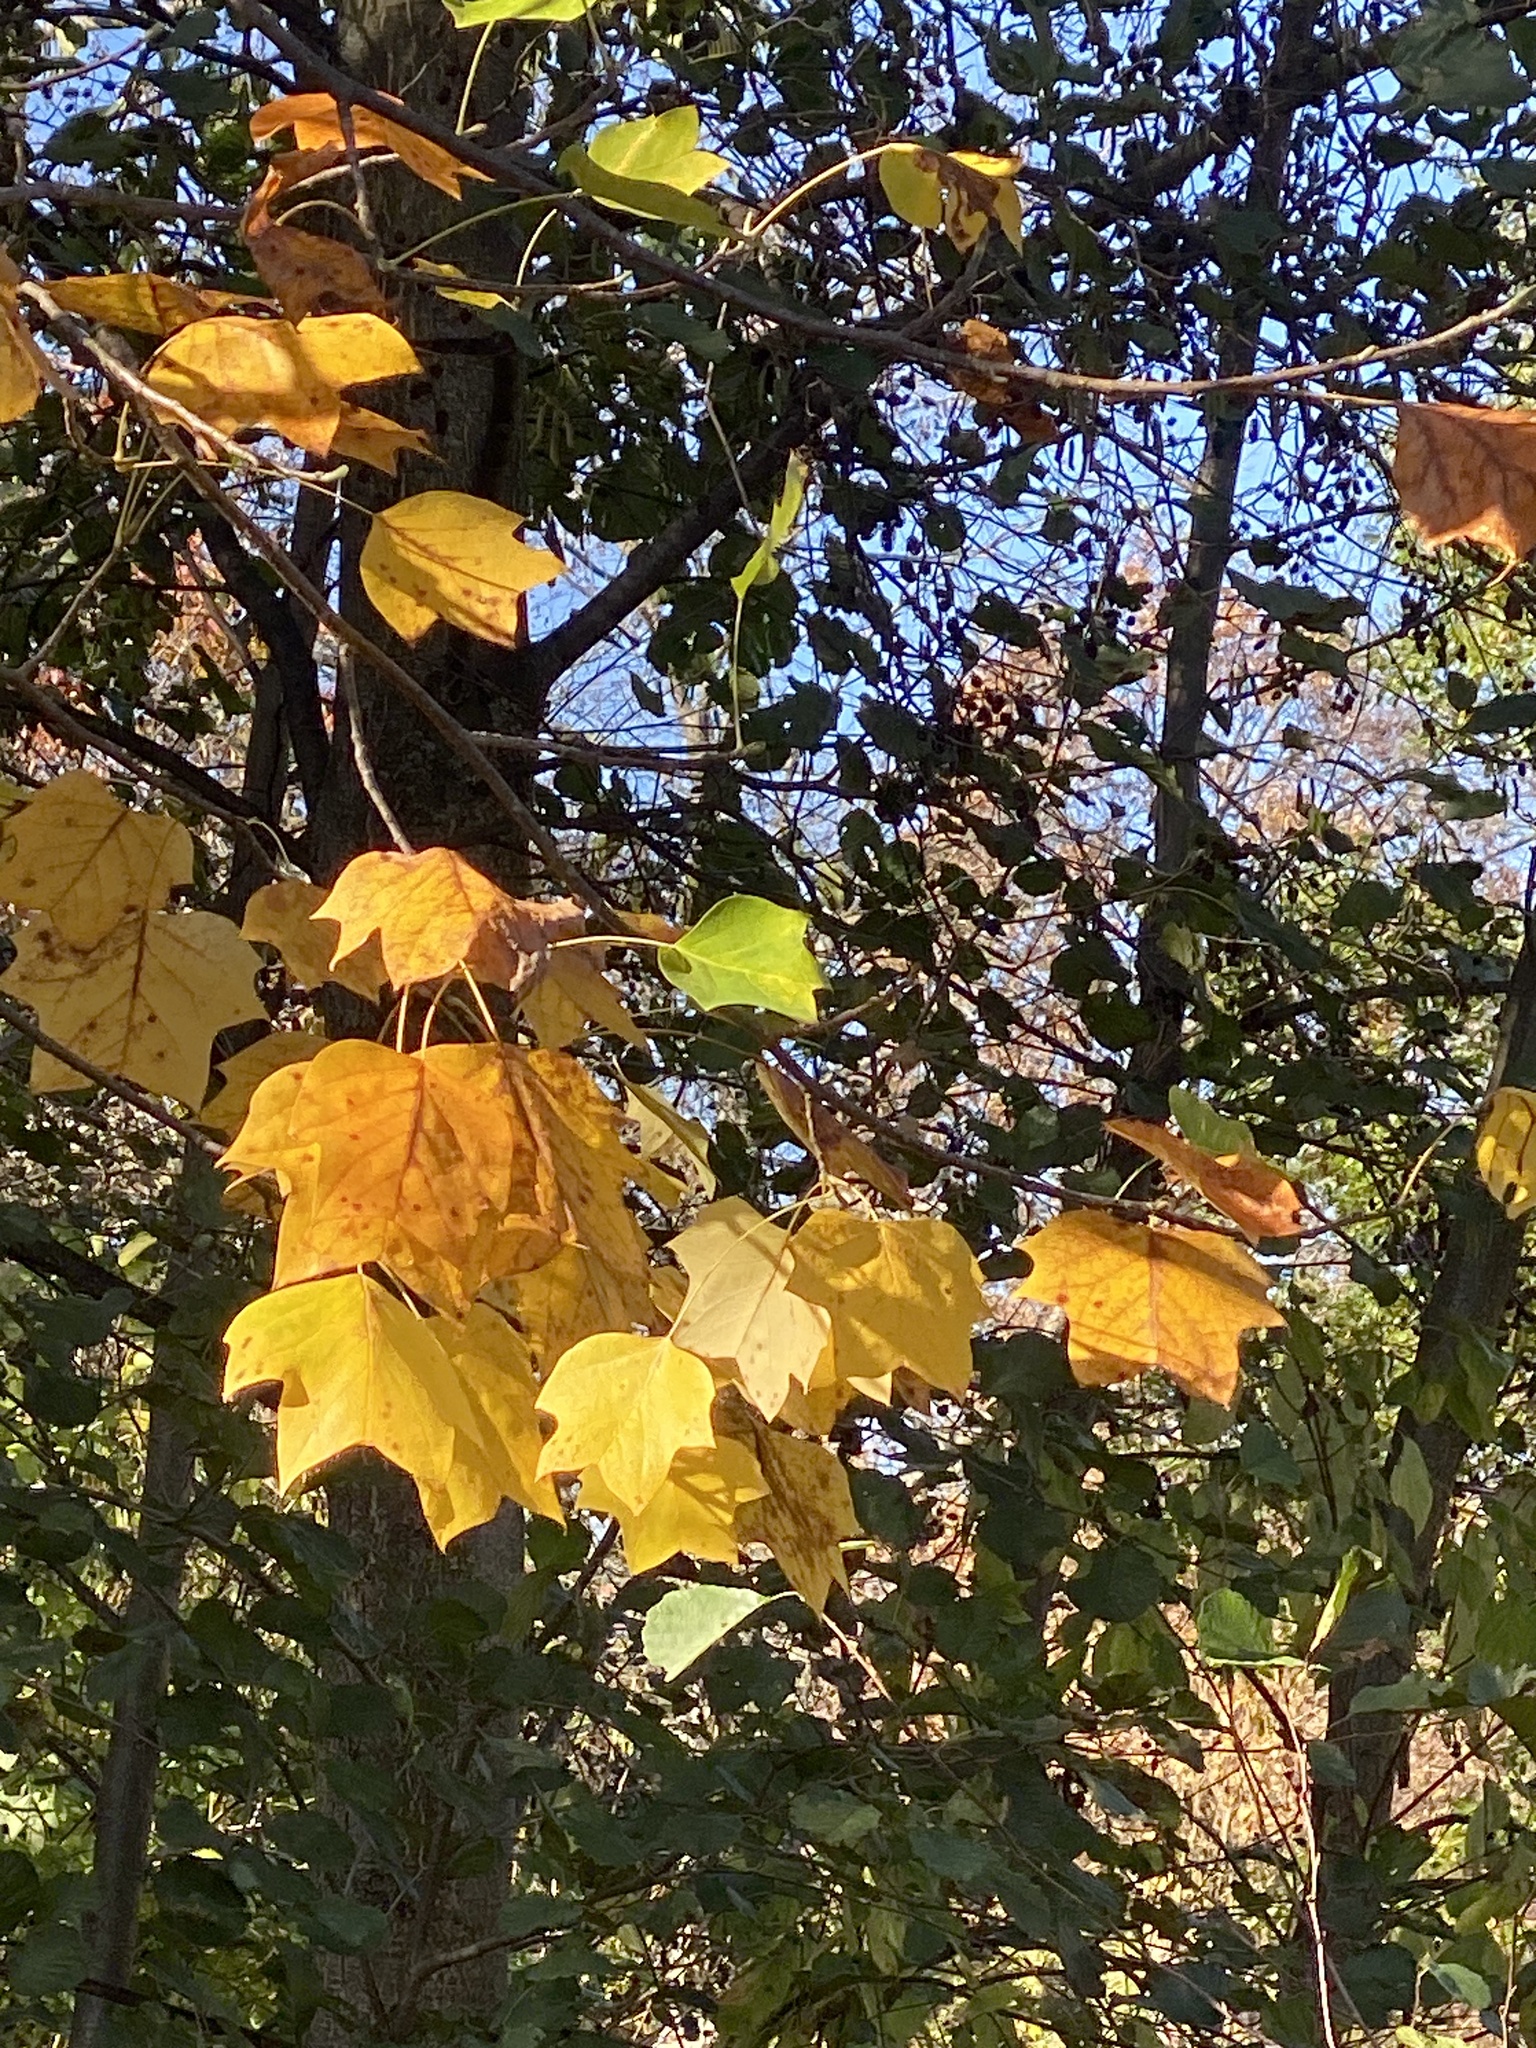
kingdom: Plantae
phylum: Tracheophyta
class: Magnoliopsida
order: Magnoliales
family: Magnoliaceae
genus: Liriodendron
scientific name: Liriodendron tulipifera
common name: Tulip tree
